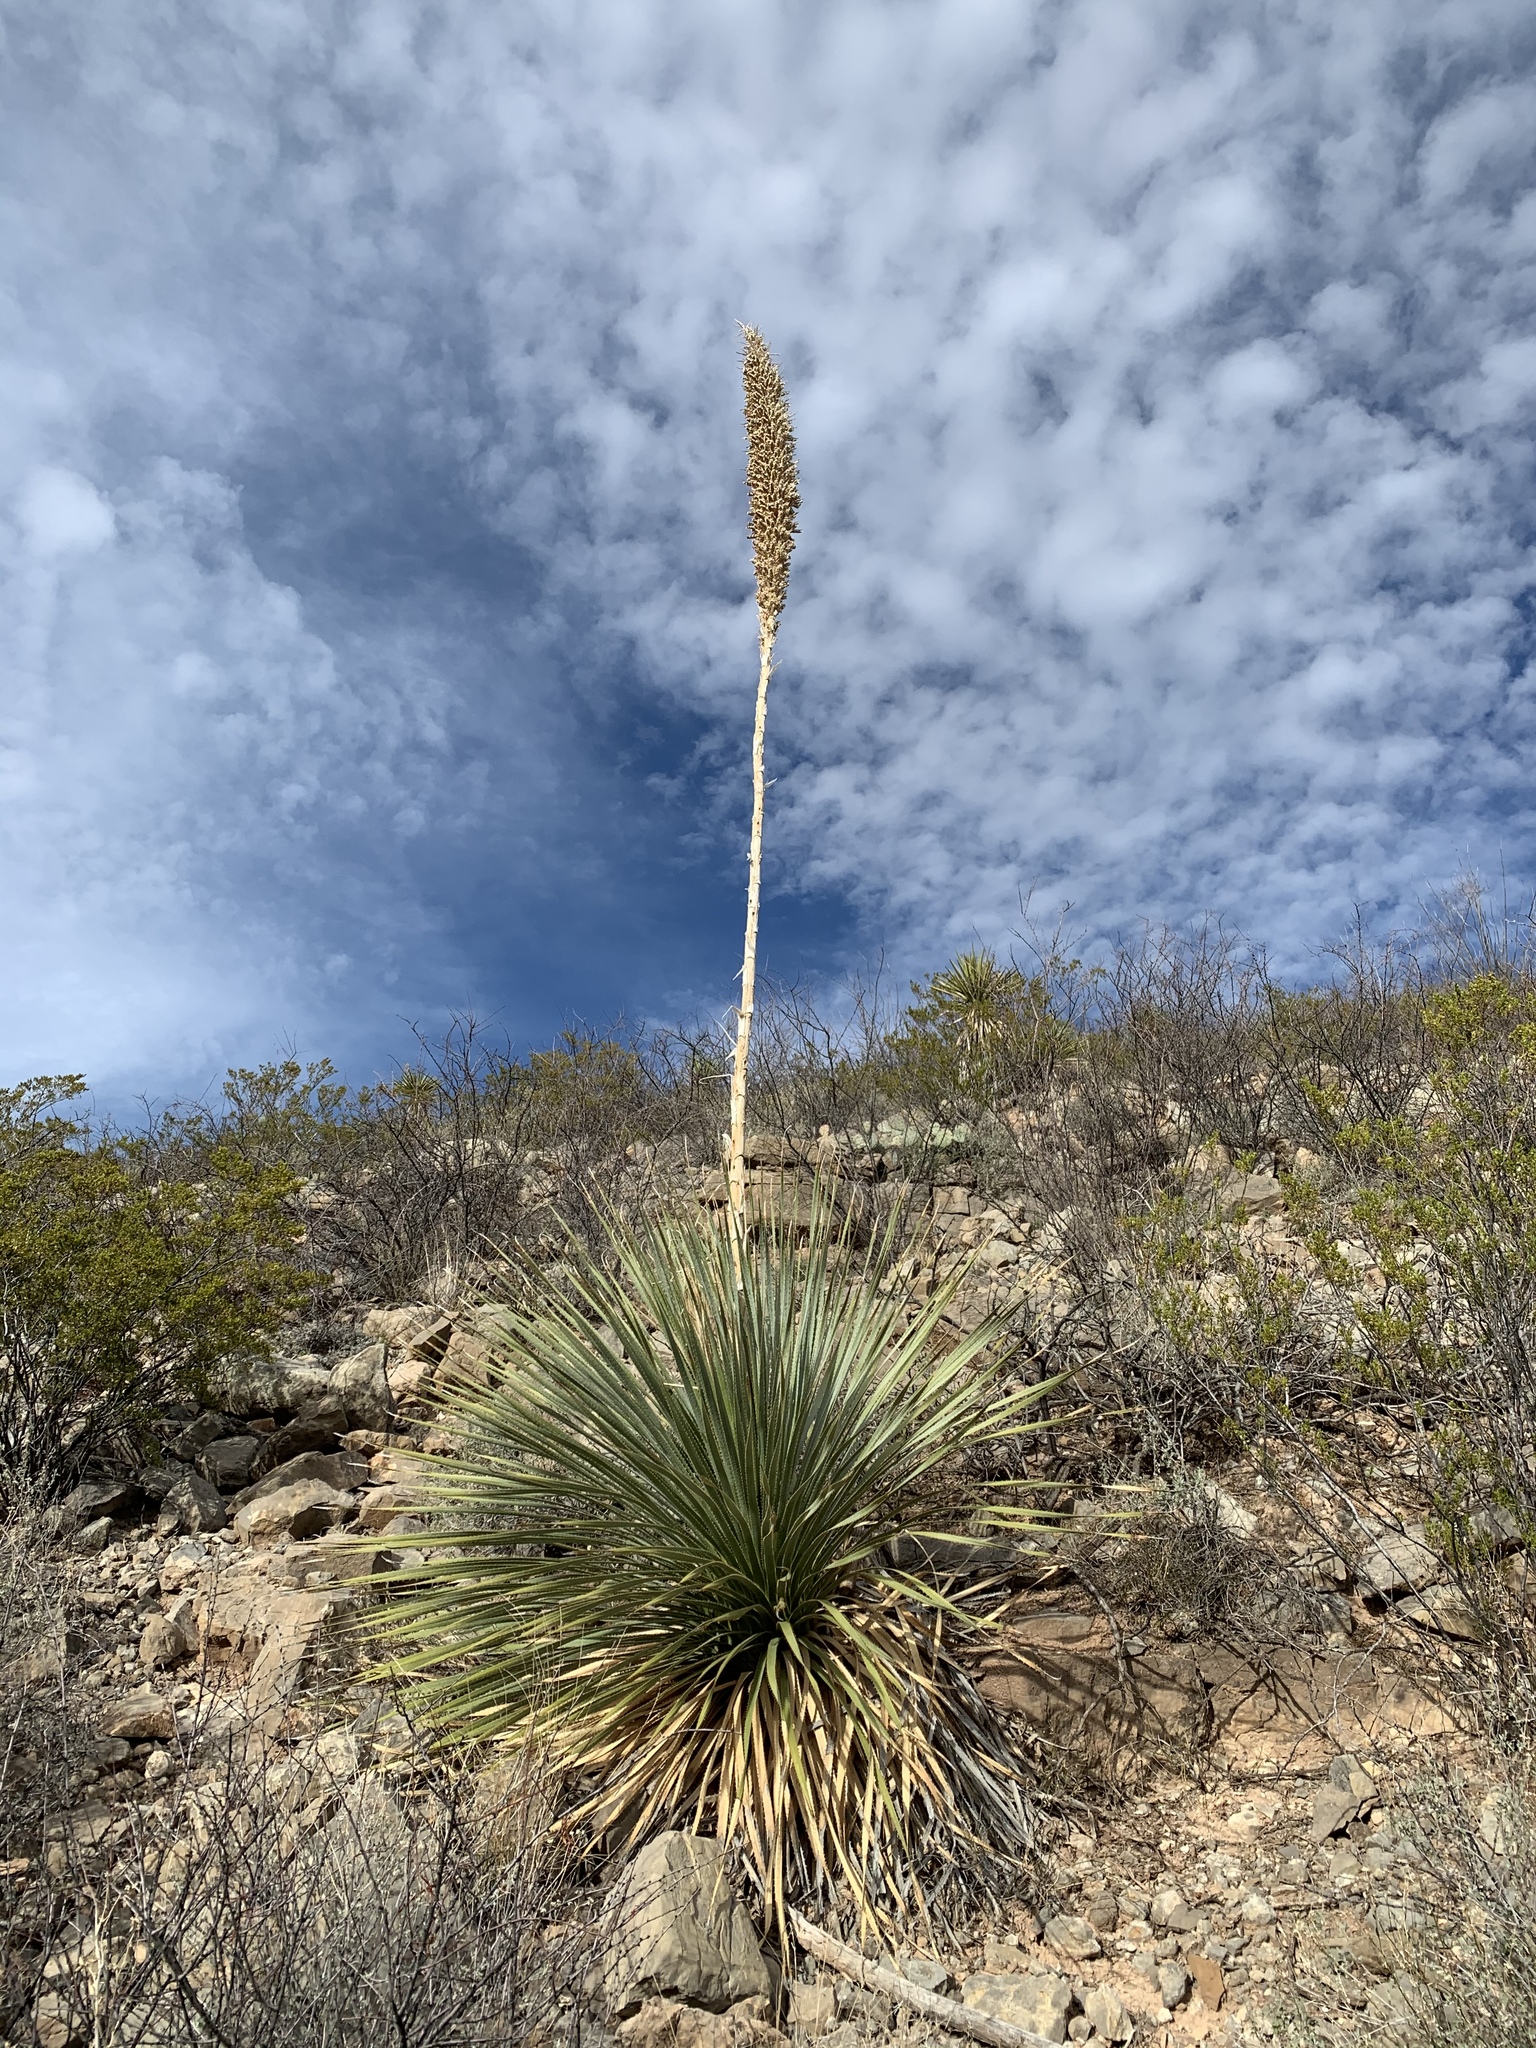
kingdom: Plantae
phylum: Tracheophyta
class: Liliopsida
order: Asparagales
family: Asparagaceae
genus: Dasylirion
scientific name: Dasylirion wheeleri
